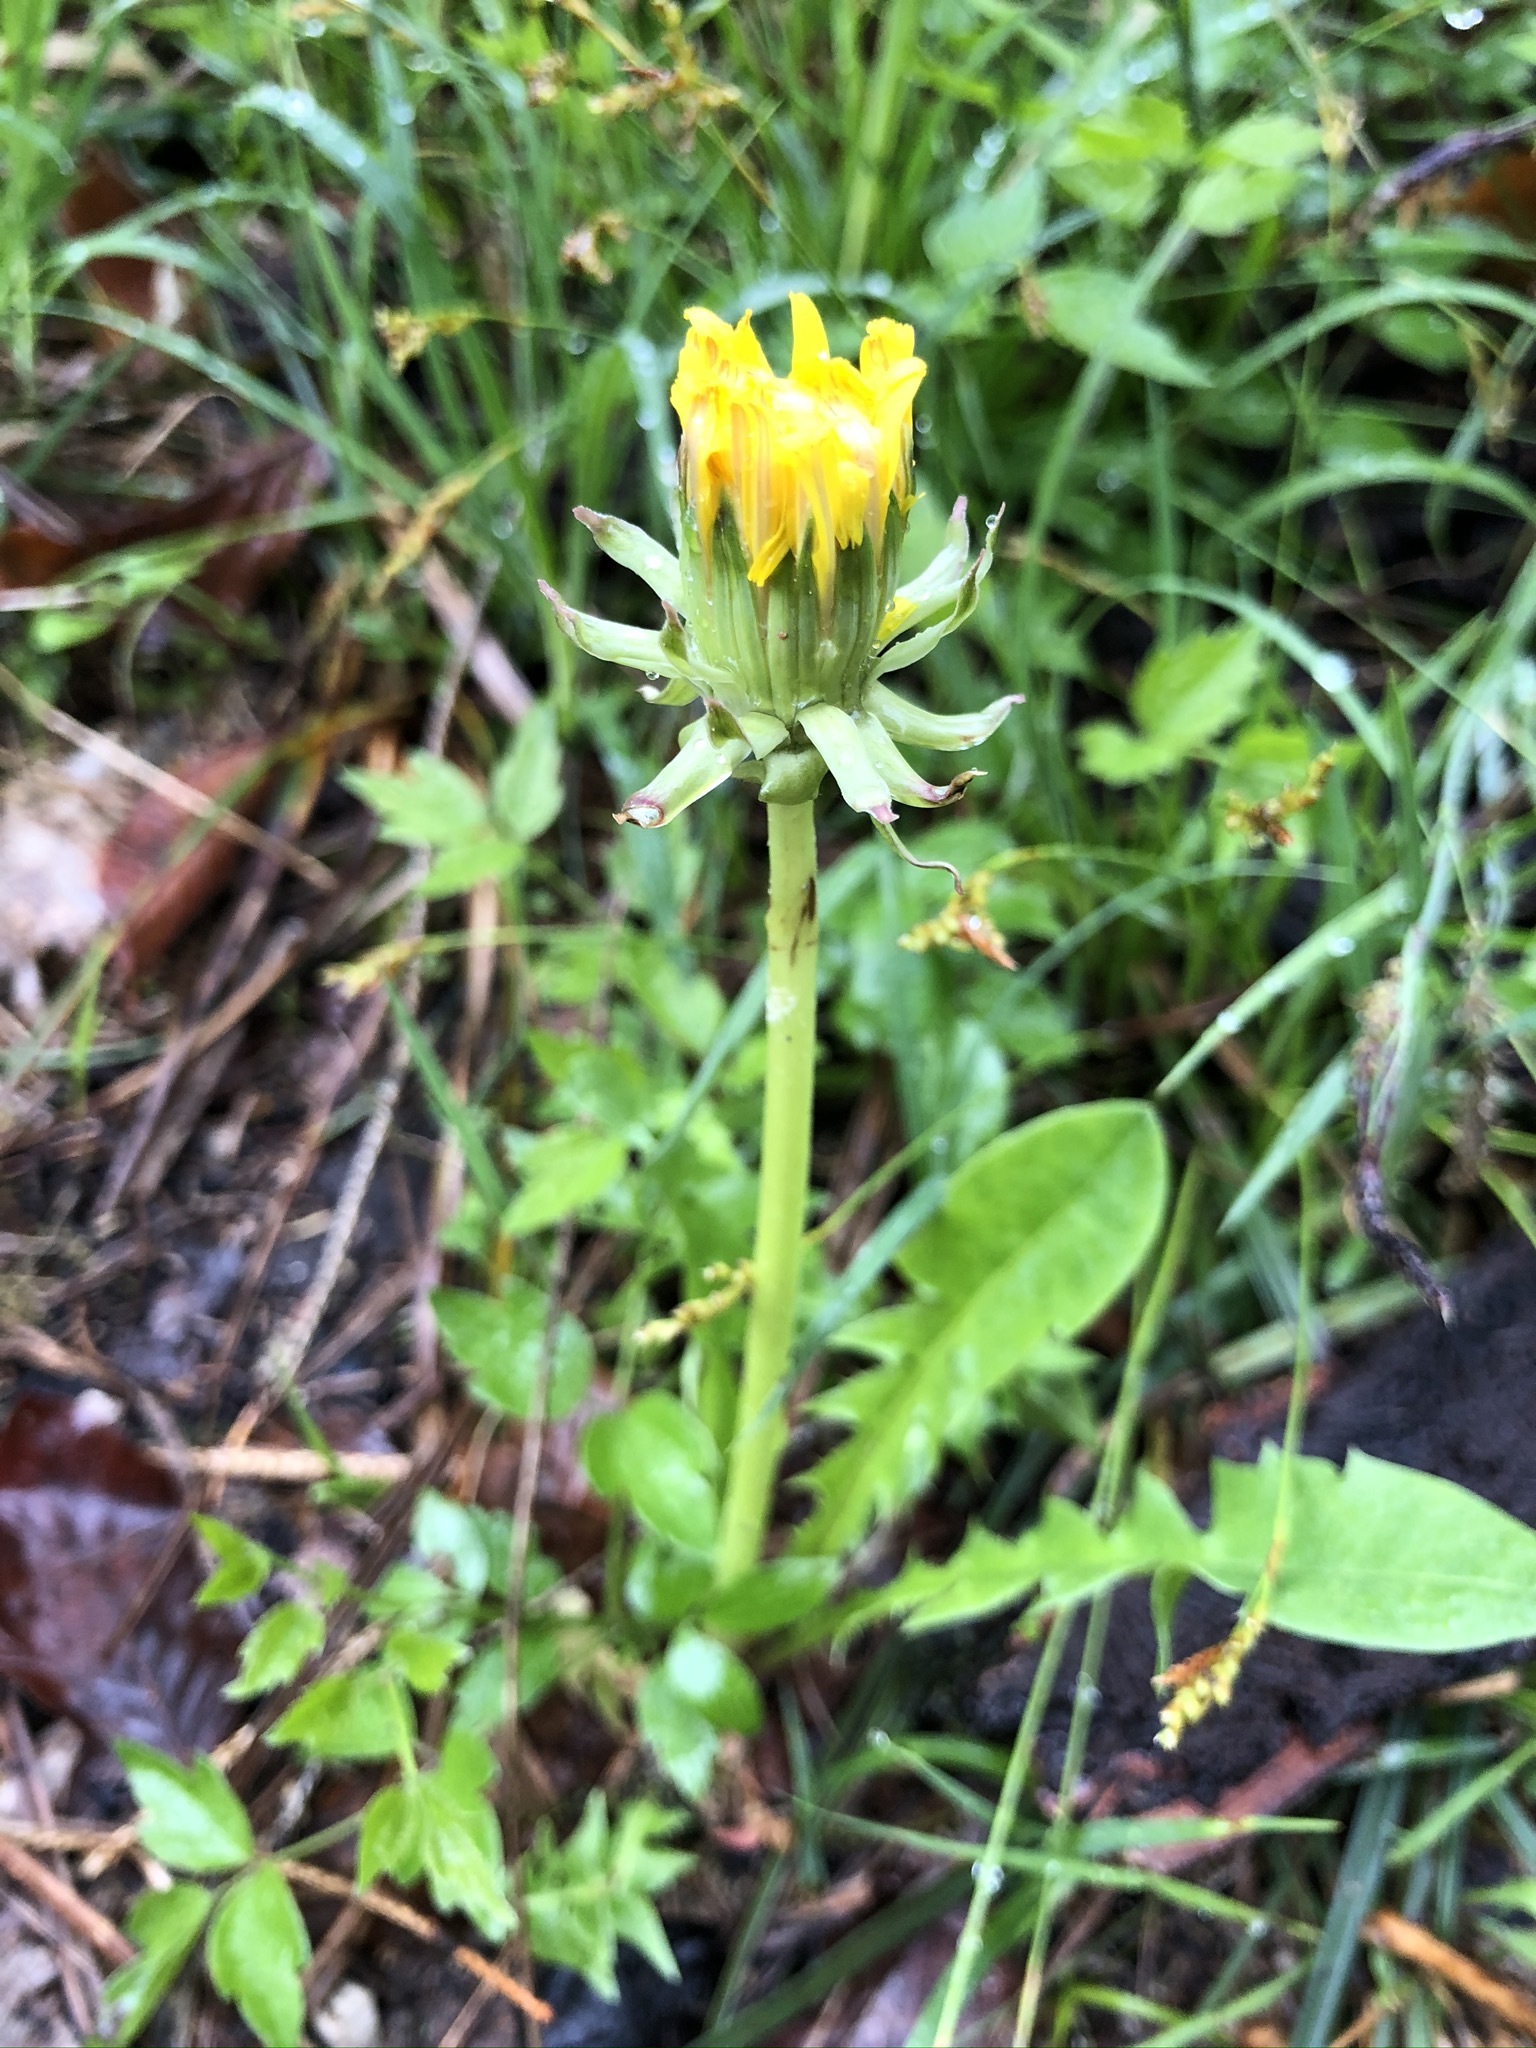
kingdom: Plantae
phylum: Tracheophyta
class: Magnoliopsida
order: Asterales
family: Asteraceae
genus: Taraxacum
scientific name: Taraxacum officinale
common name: Common dandelion
